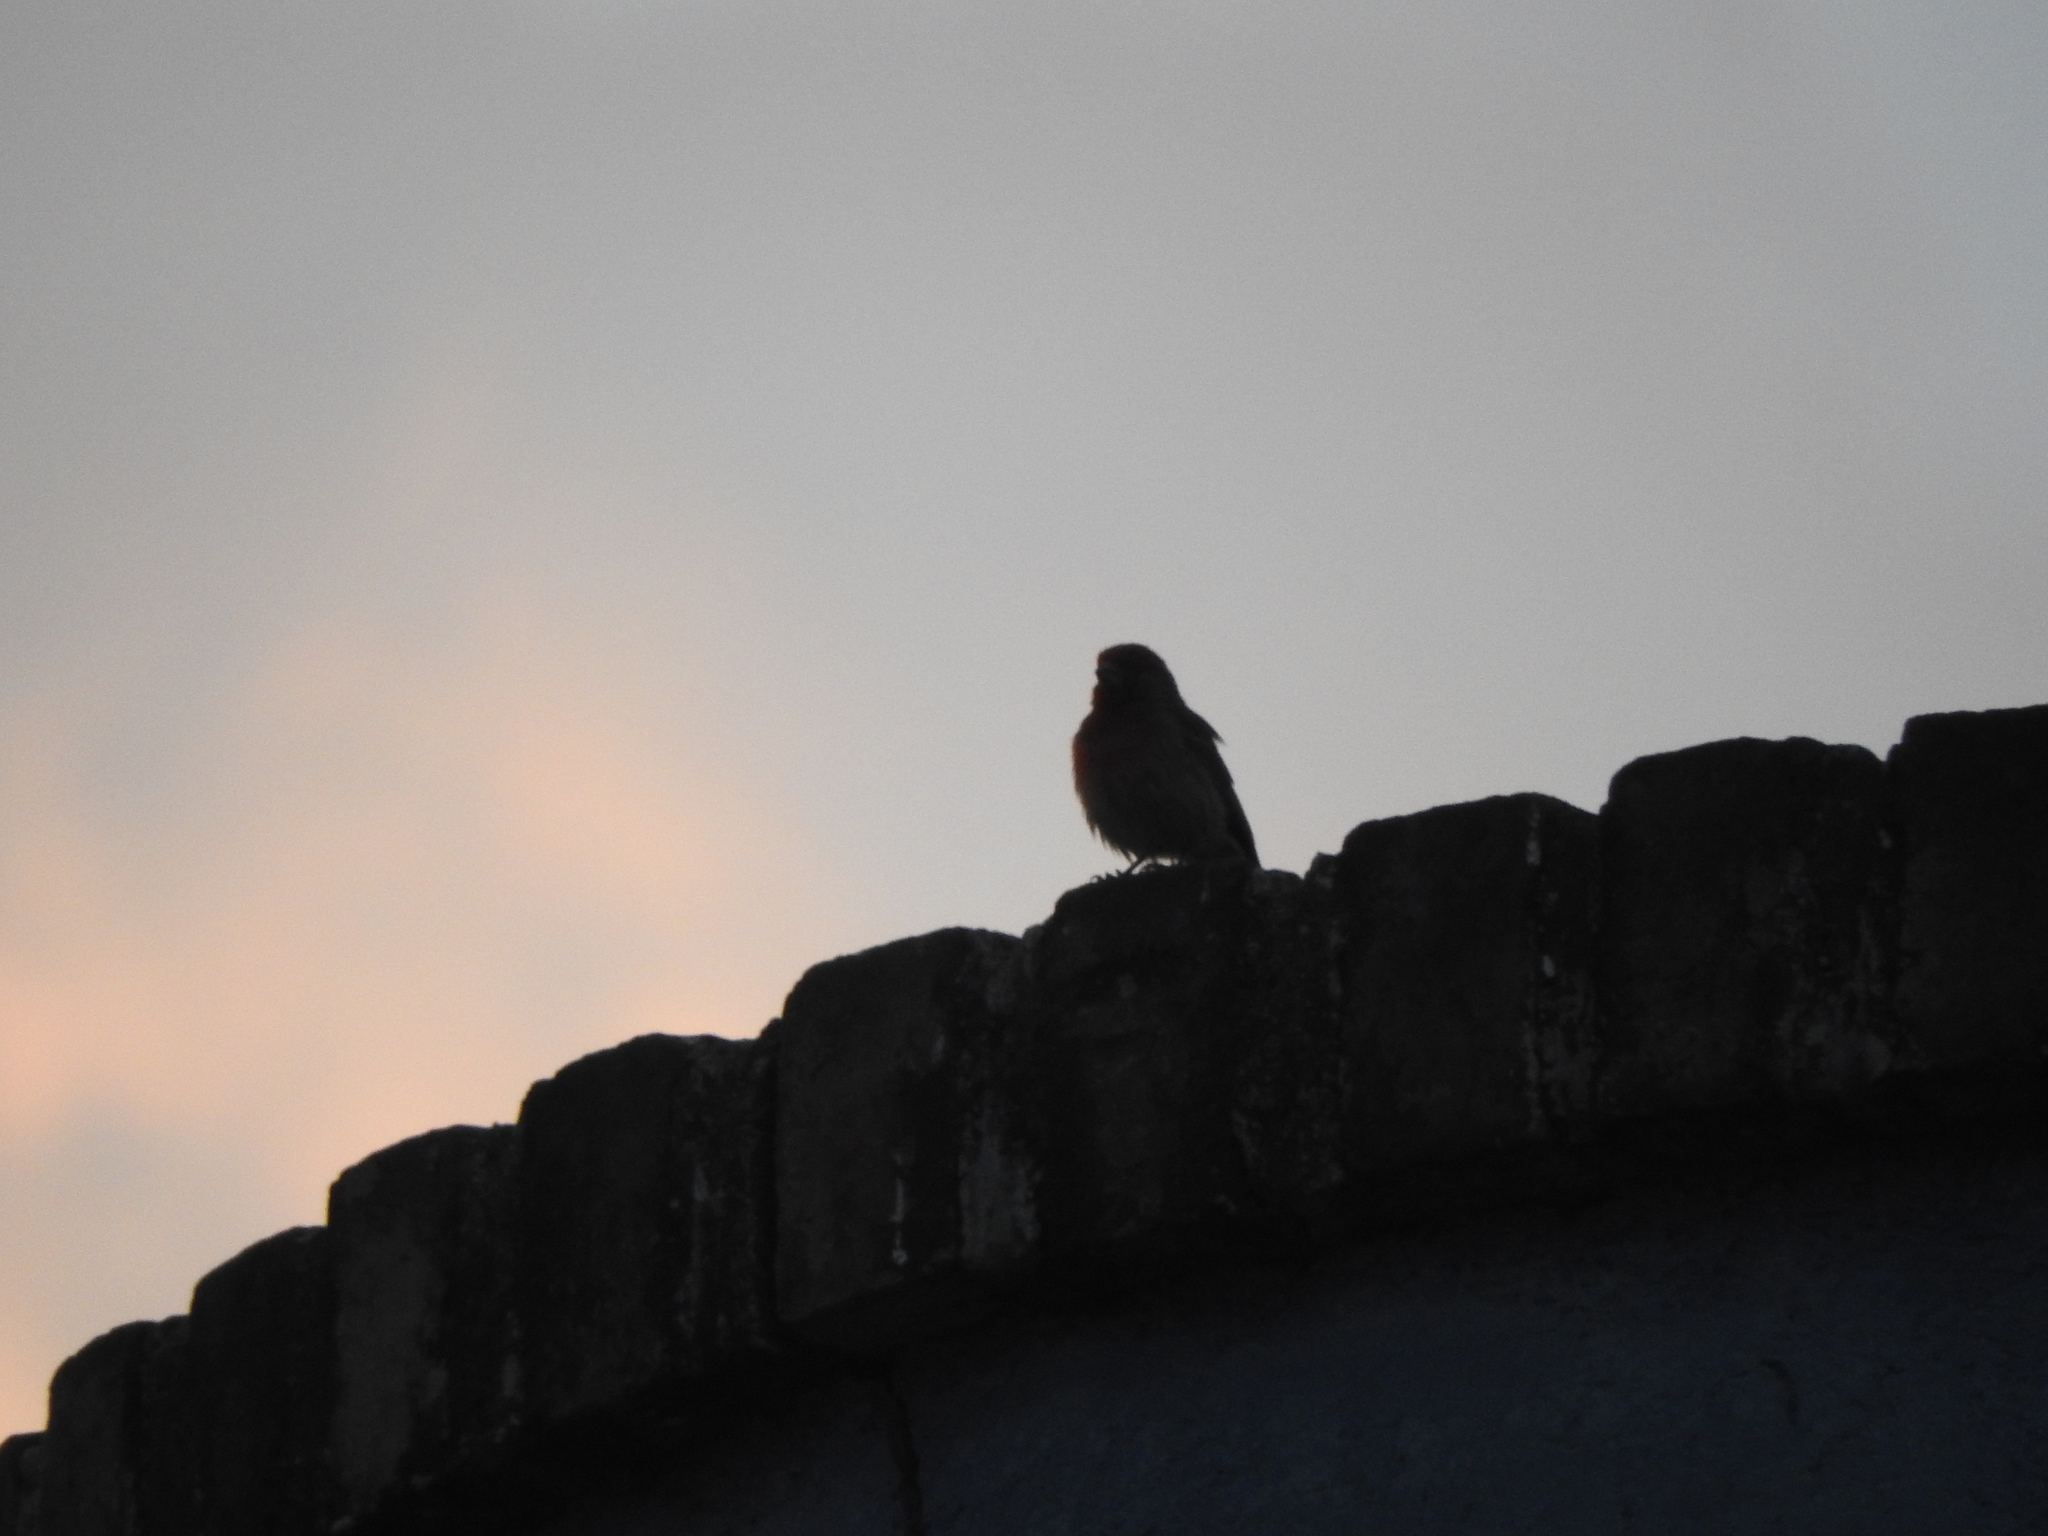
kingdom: Animalia
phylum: Chordata
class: Aves
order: Passeriformes
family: Fringillidae
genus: Haemorhous
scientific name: Haemorhous mexicanus
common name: House finch
